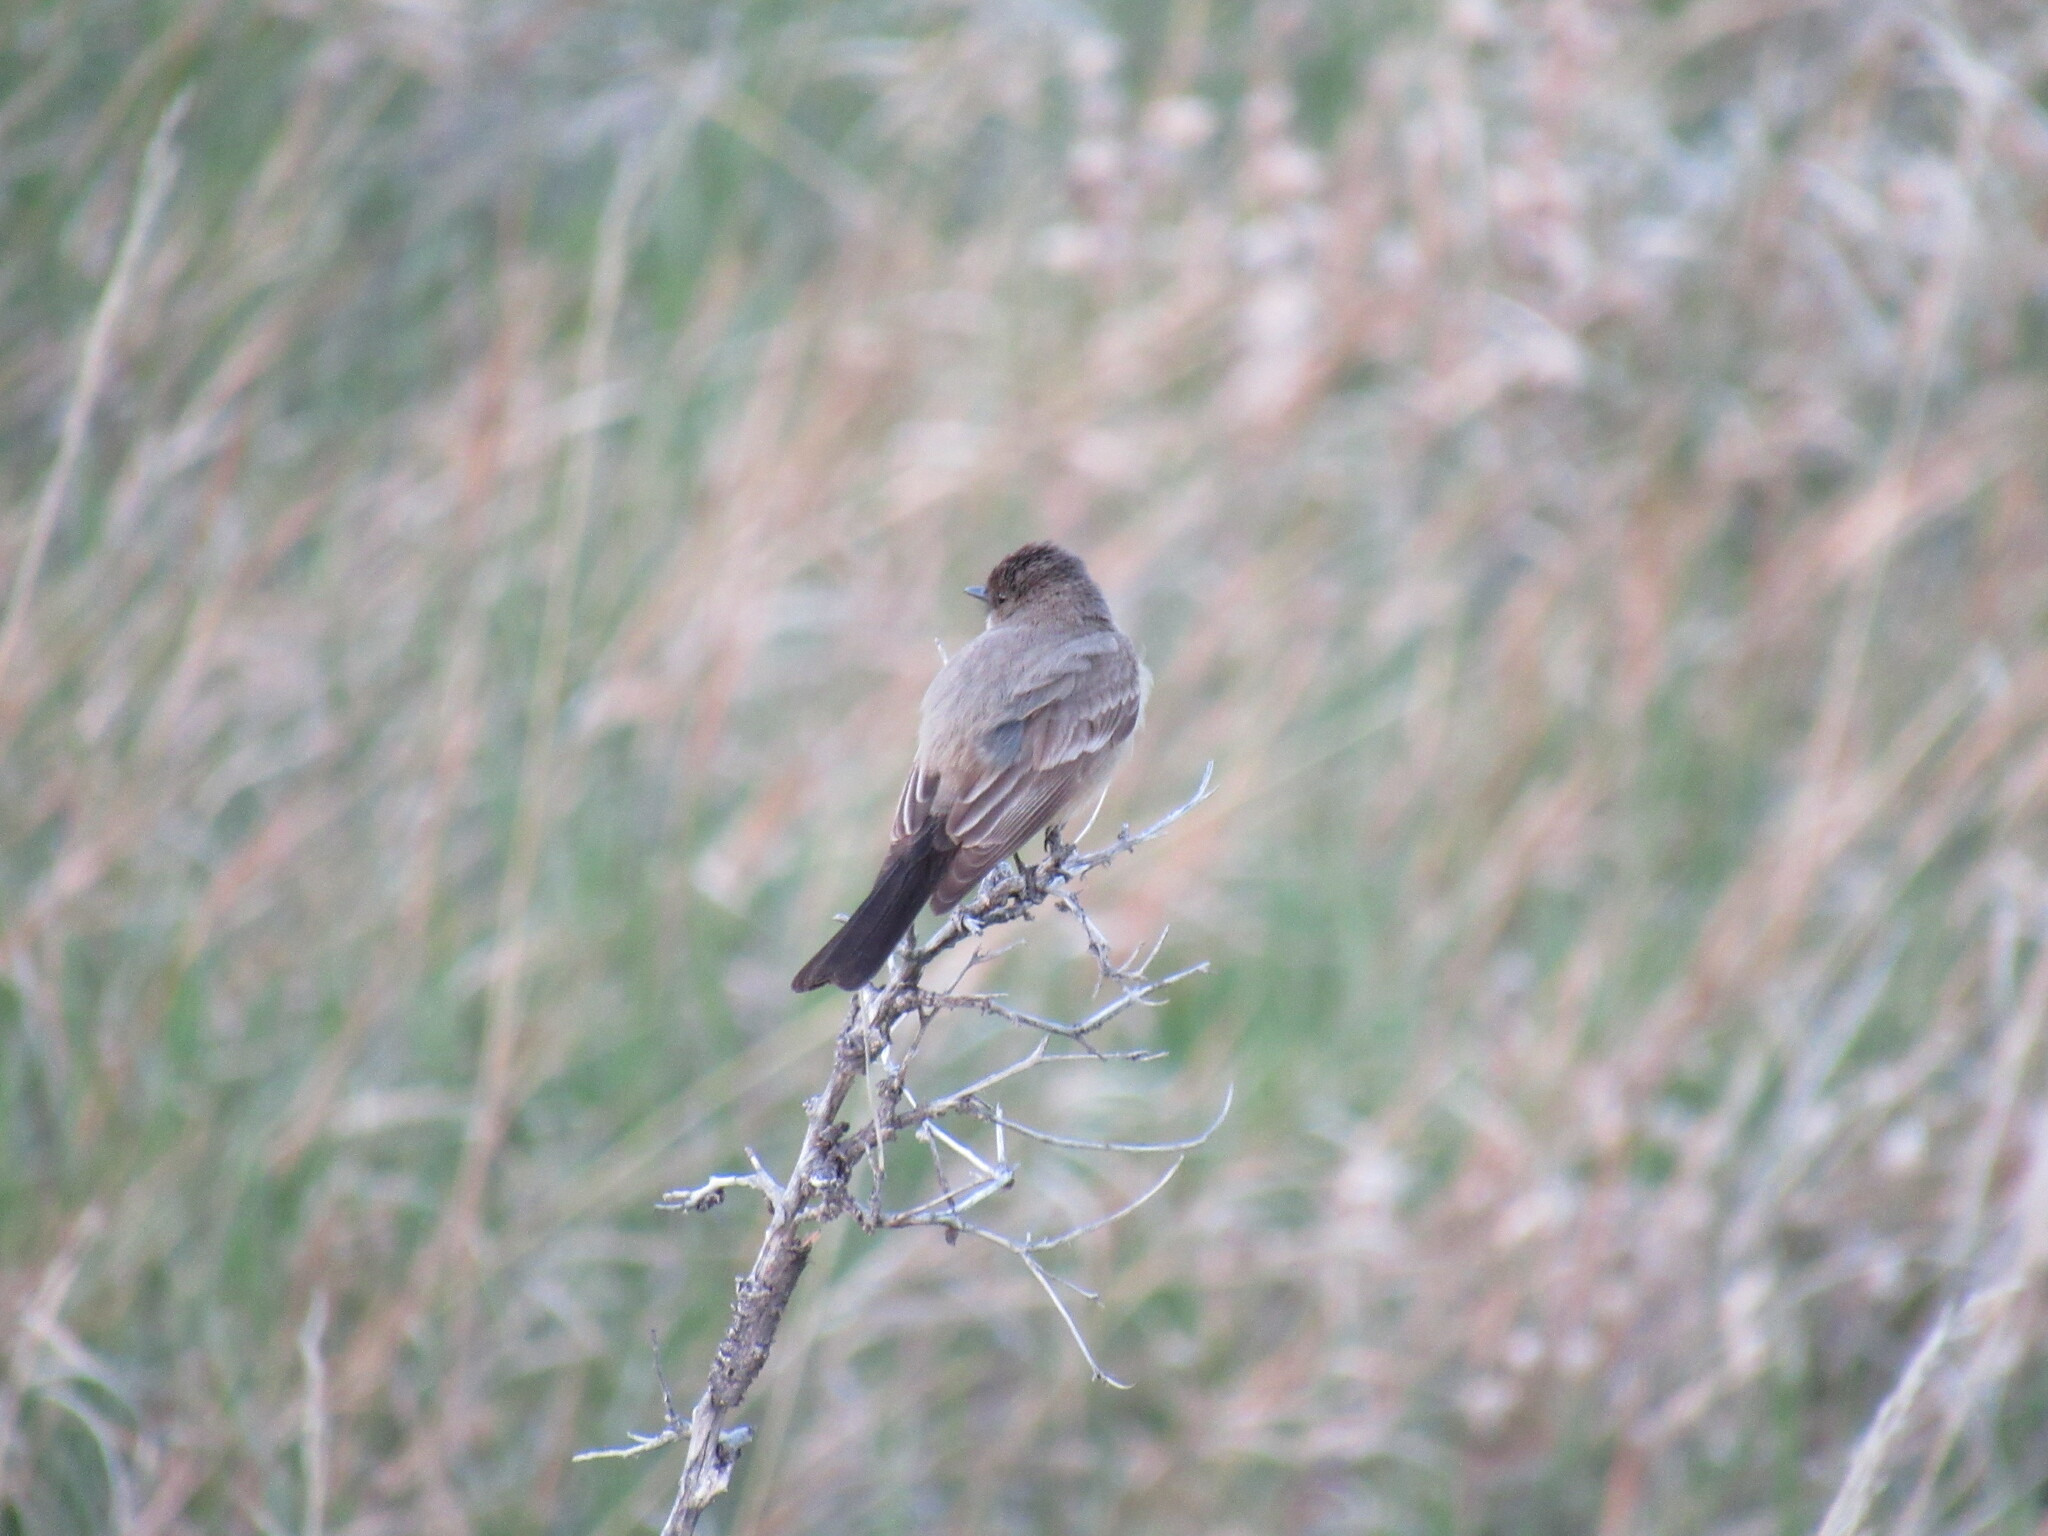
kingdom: Animalia
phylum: Chordata
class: Aves
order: Passeriformes
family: Tyrannidae
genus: Sayornis
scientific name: Sayornis saya
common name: Say's phoebe
